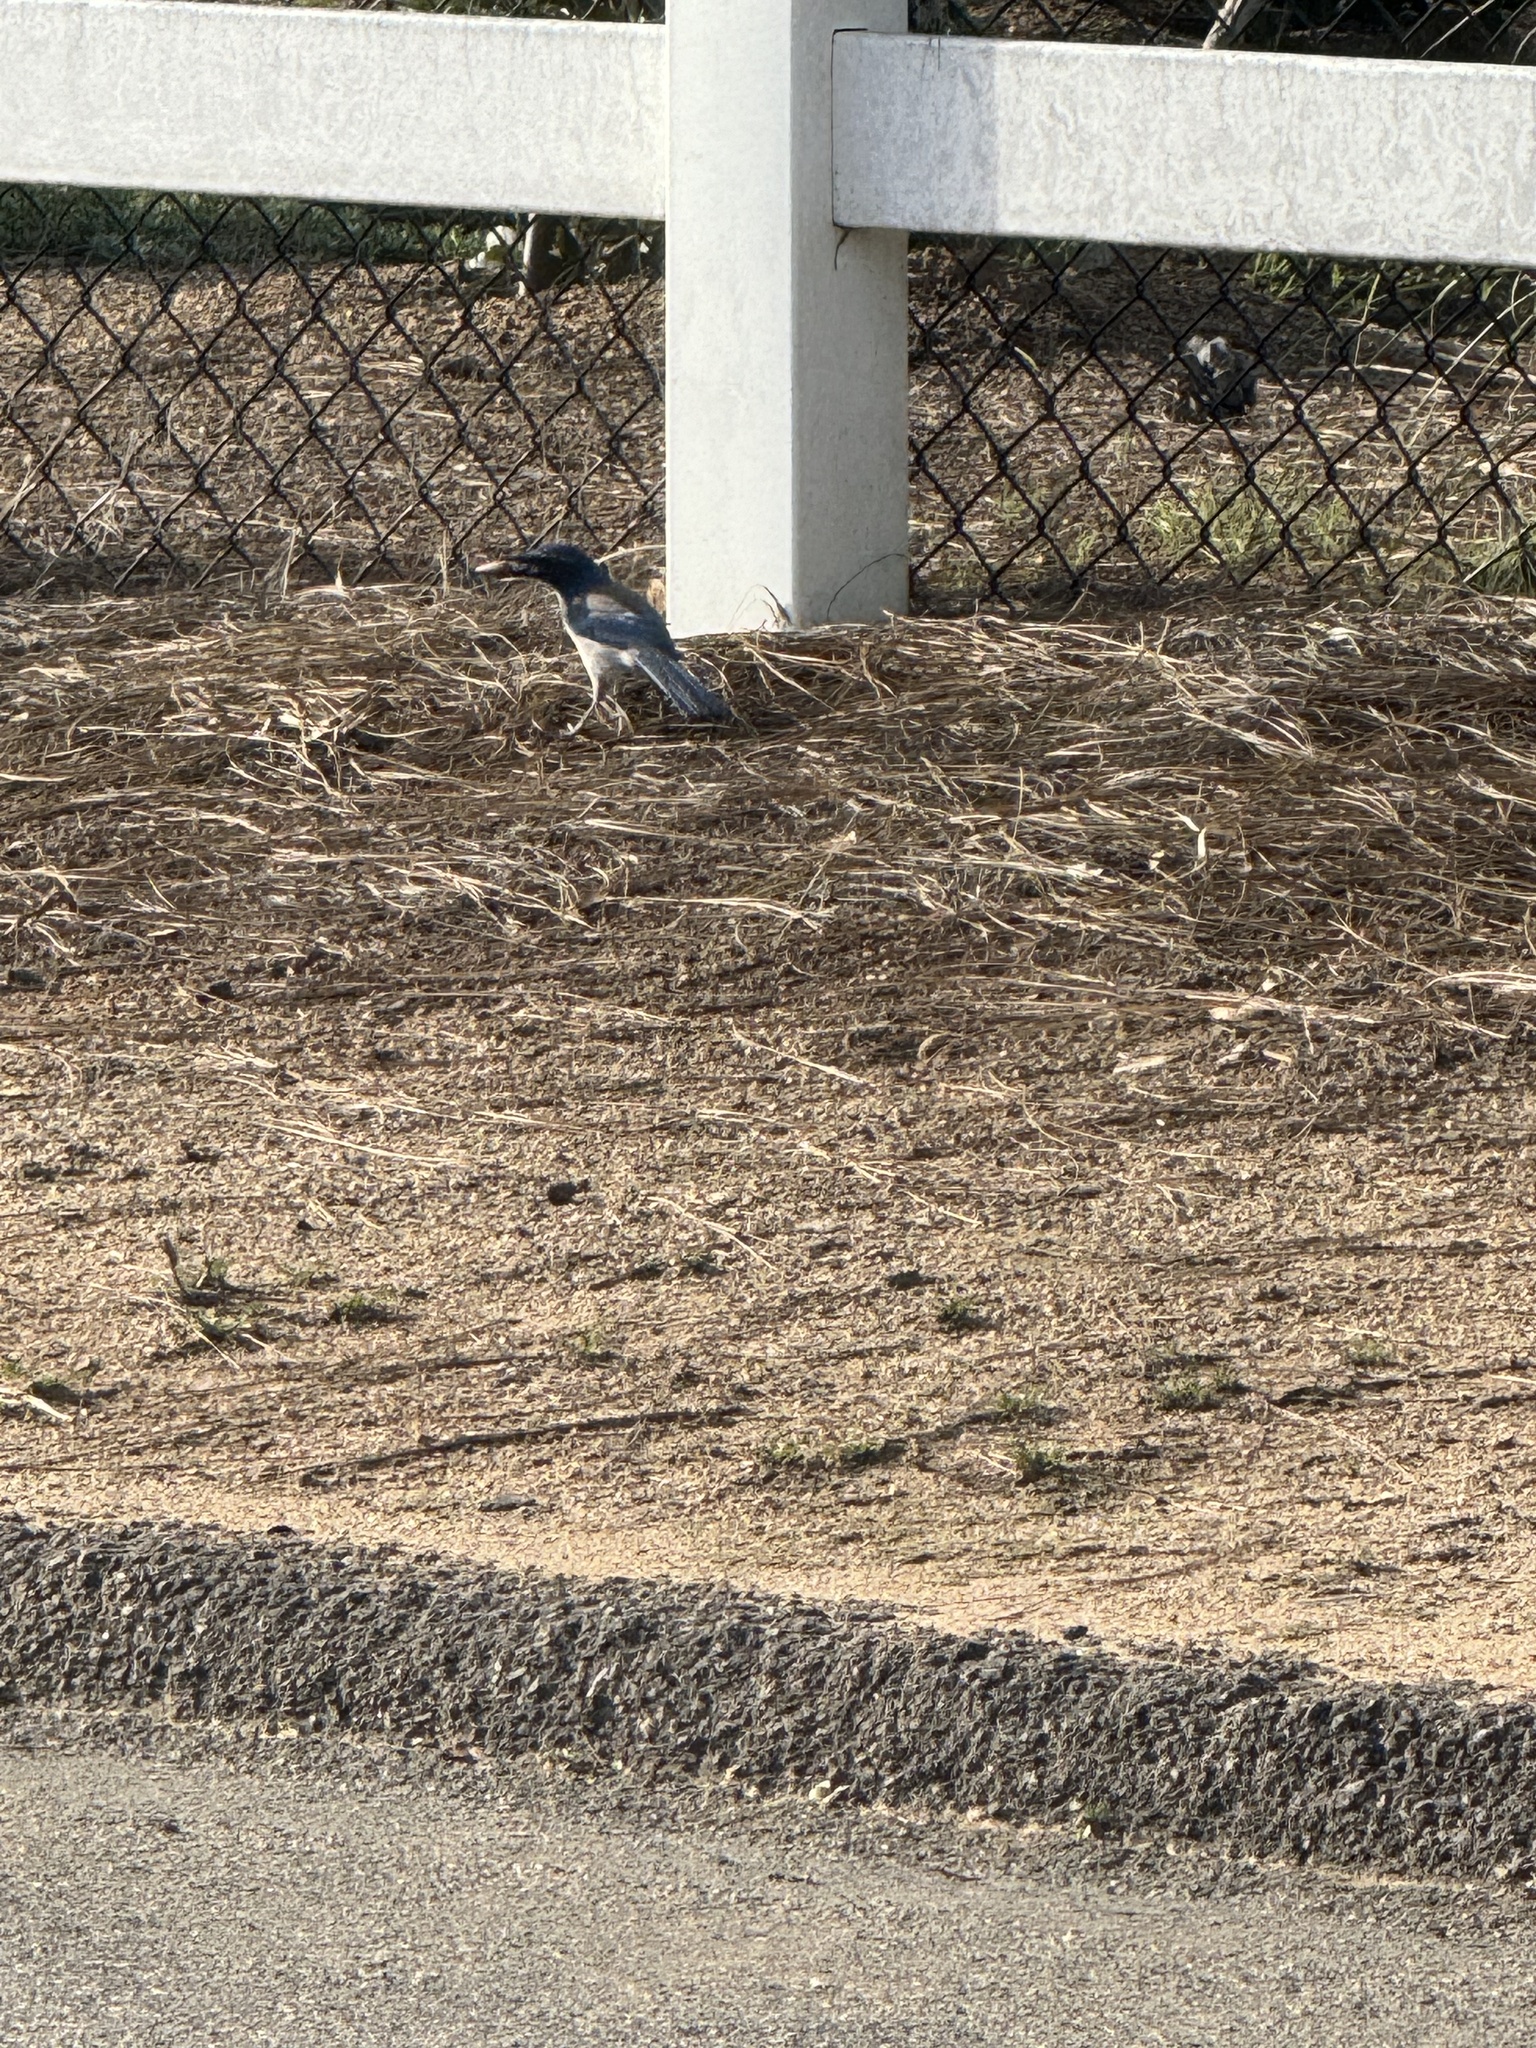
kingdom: Animalia
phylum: Chordata
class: Aves
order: Passeriformes
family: Corvidae
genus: Aphelocoma
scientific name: Aphelocoma californica
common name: California scrub-jay
